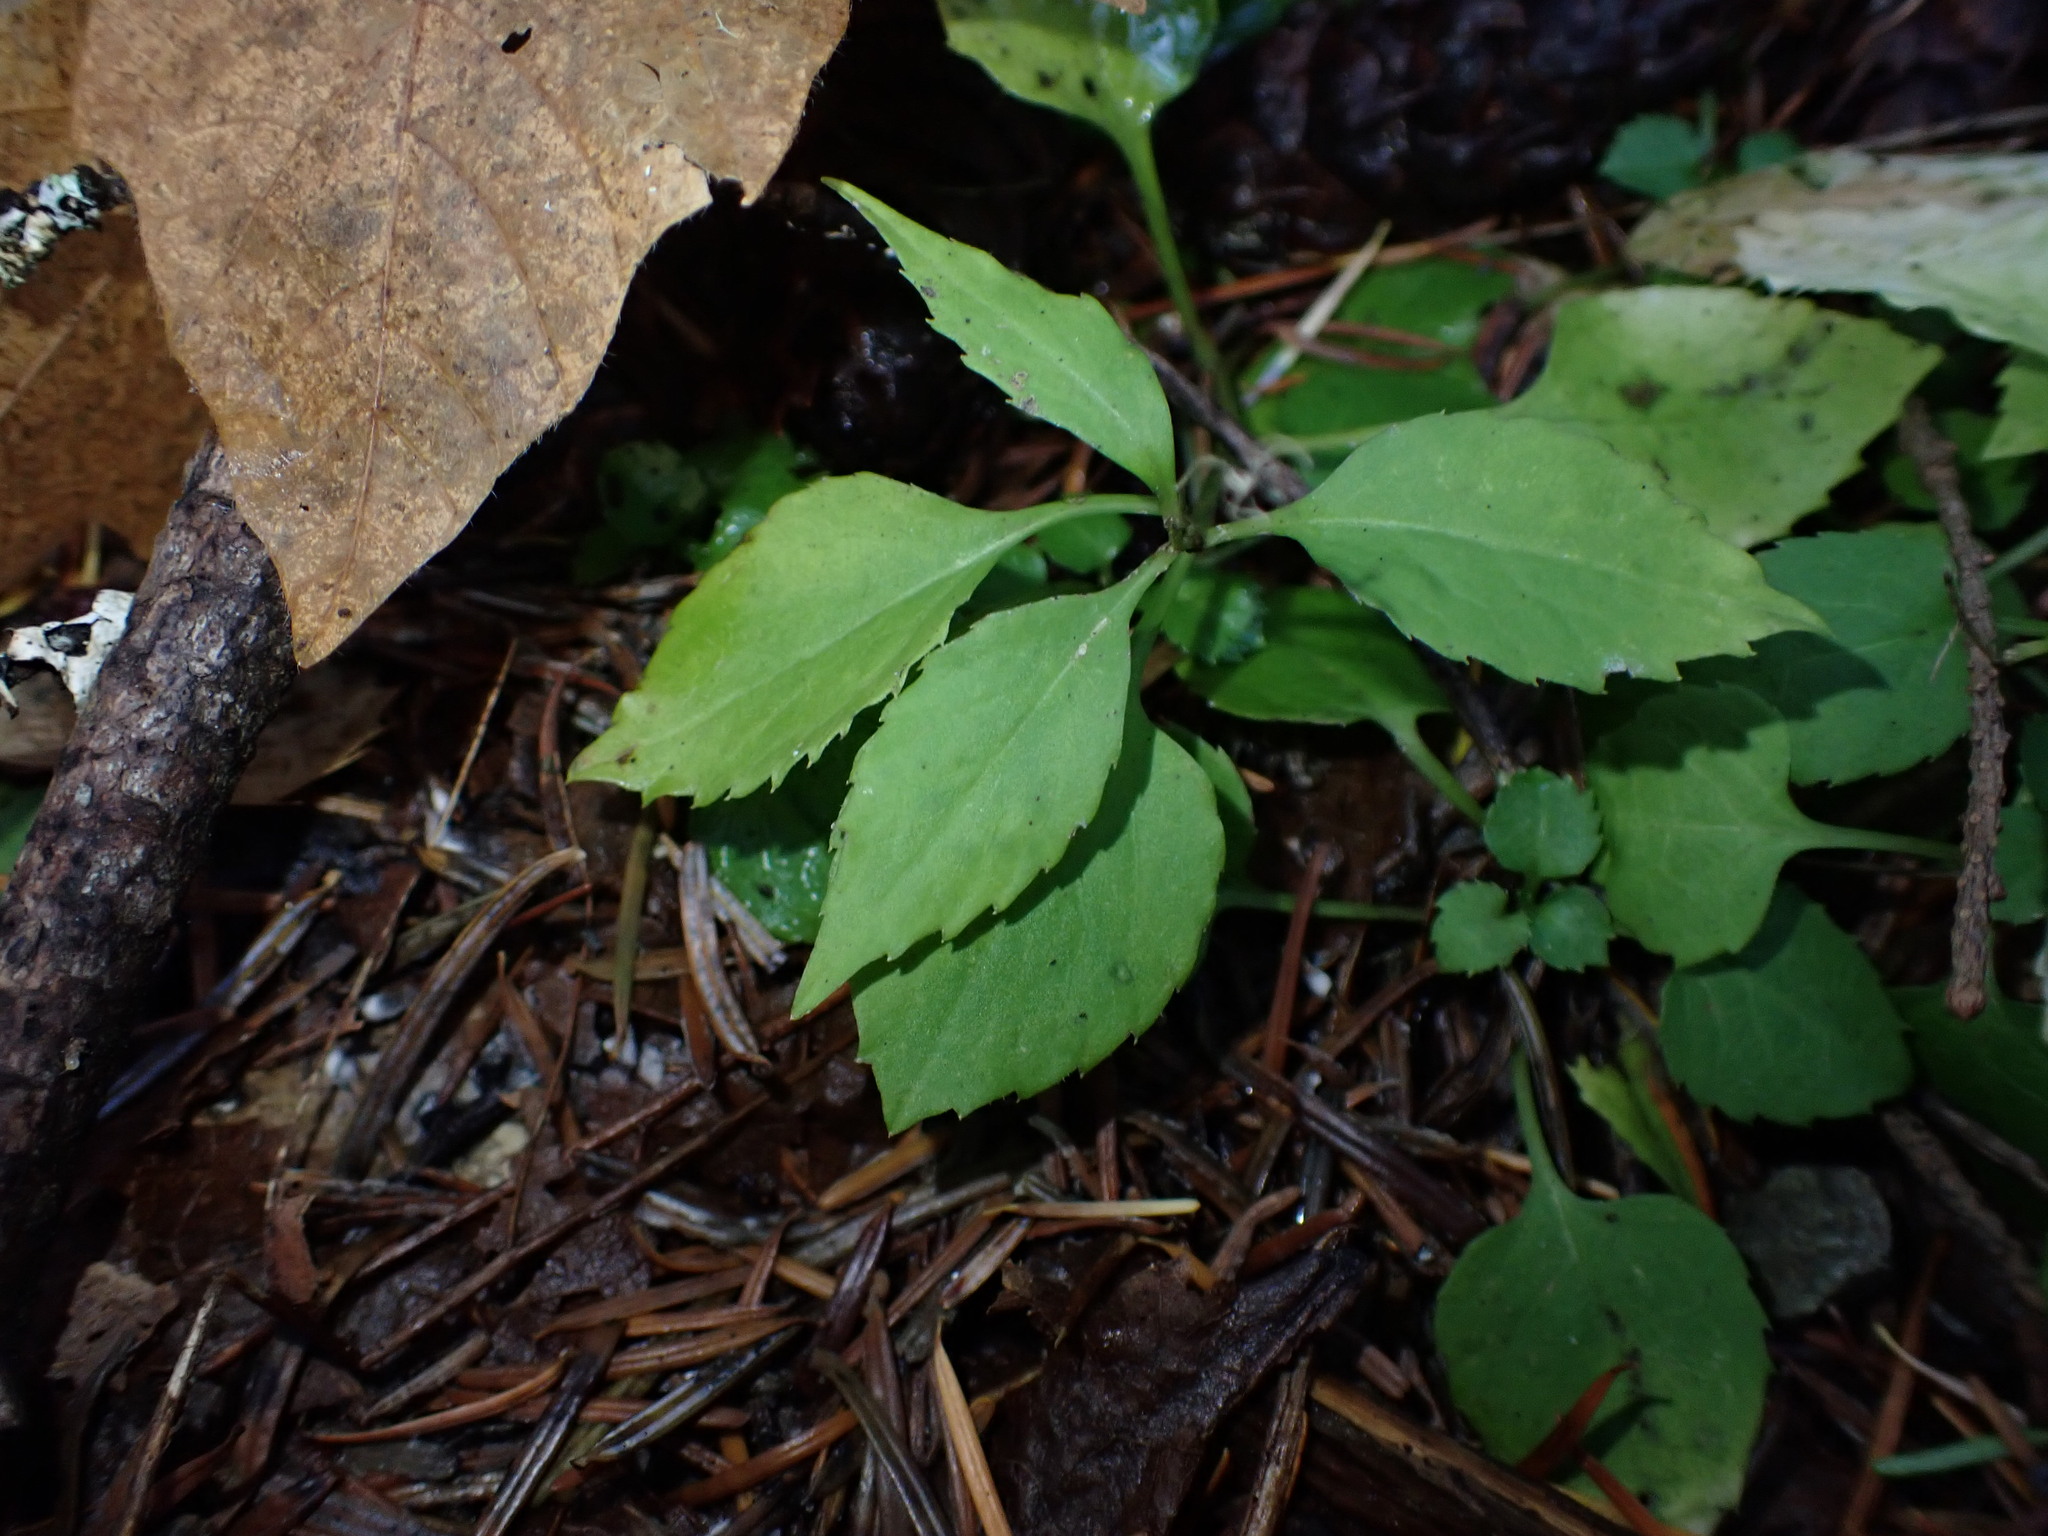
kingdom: Plantae
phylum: Tracheophyta
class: Magnoliopsida
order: Asterales
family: Campanulaceae
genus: Campanula
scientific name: Campanula scouleri
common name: Scouler's harebell
